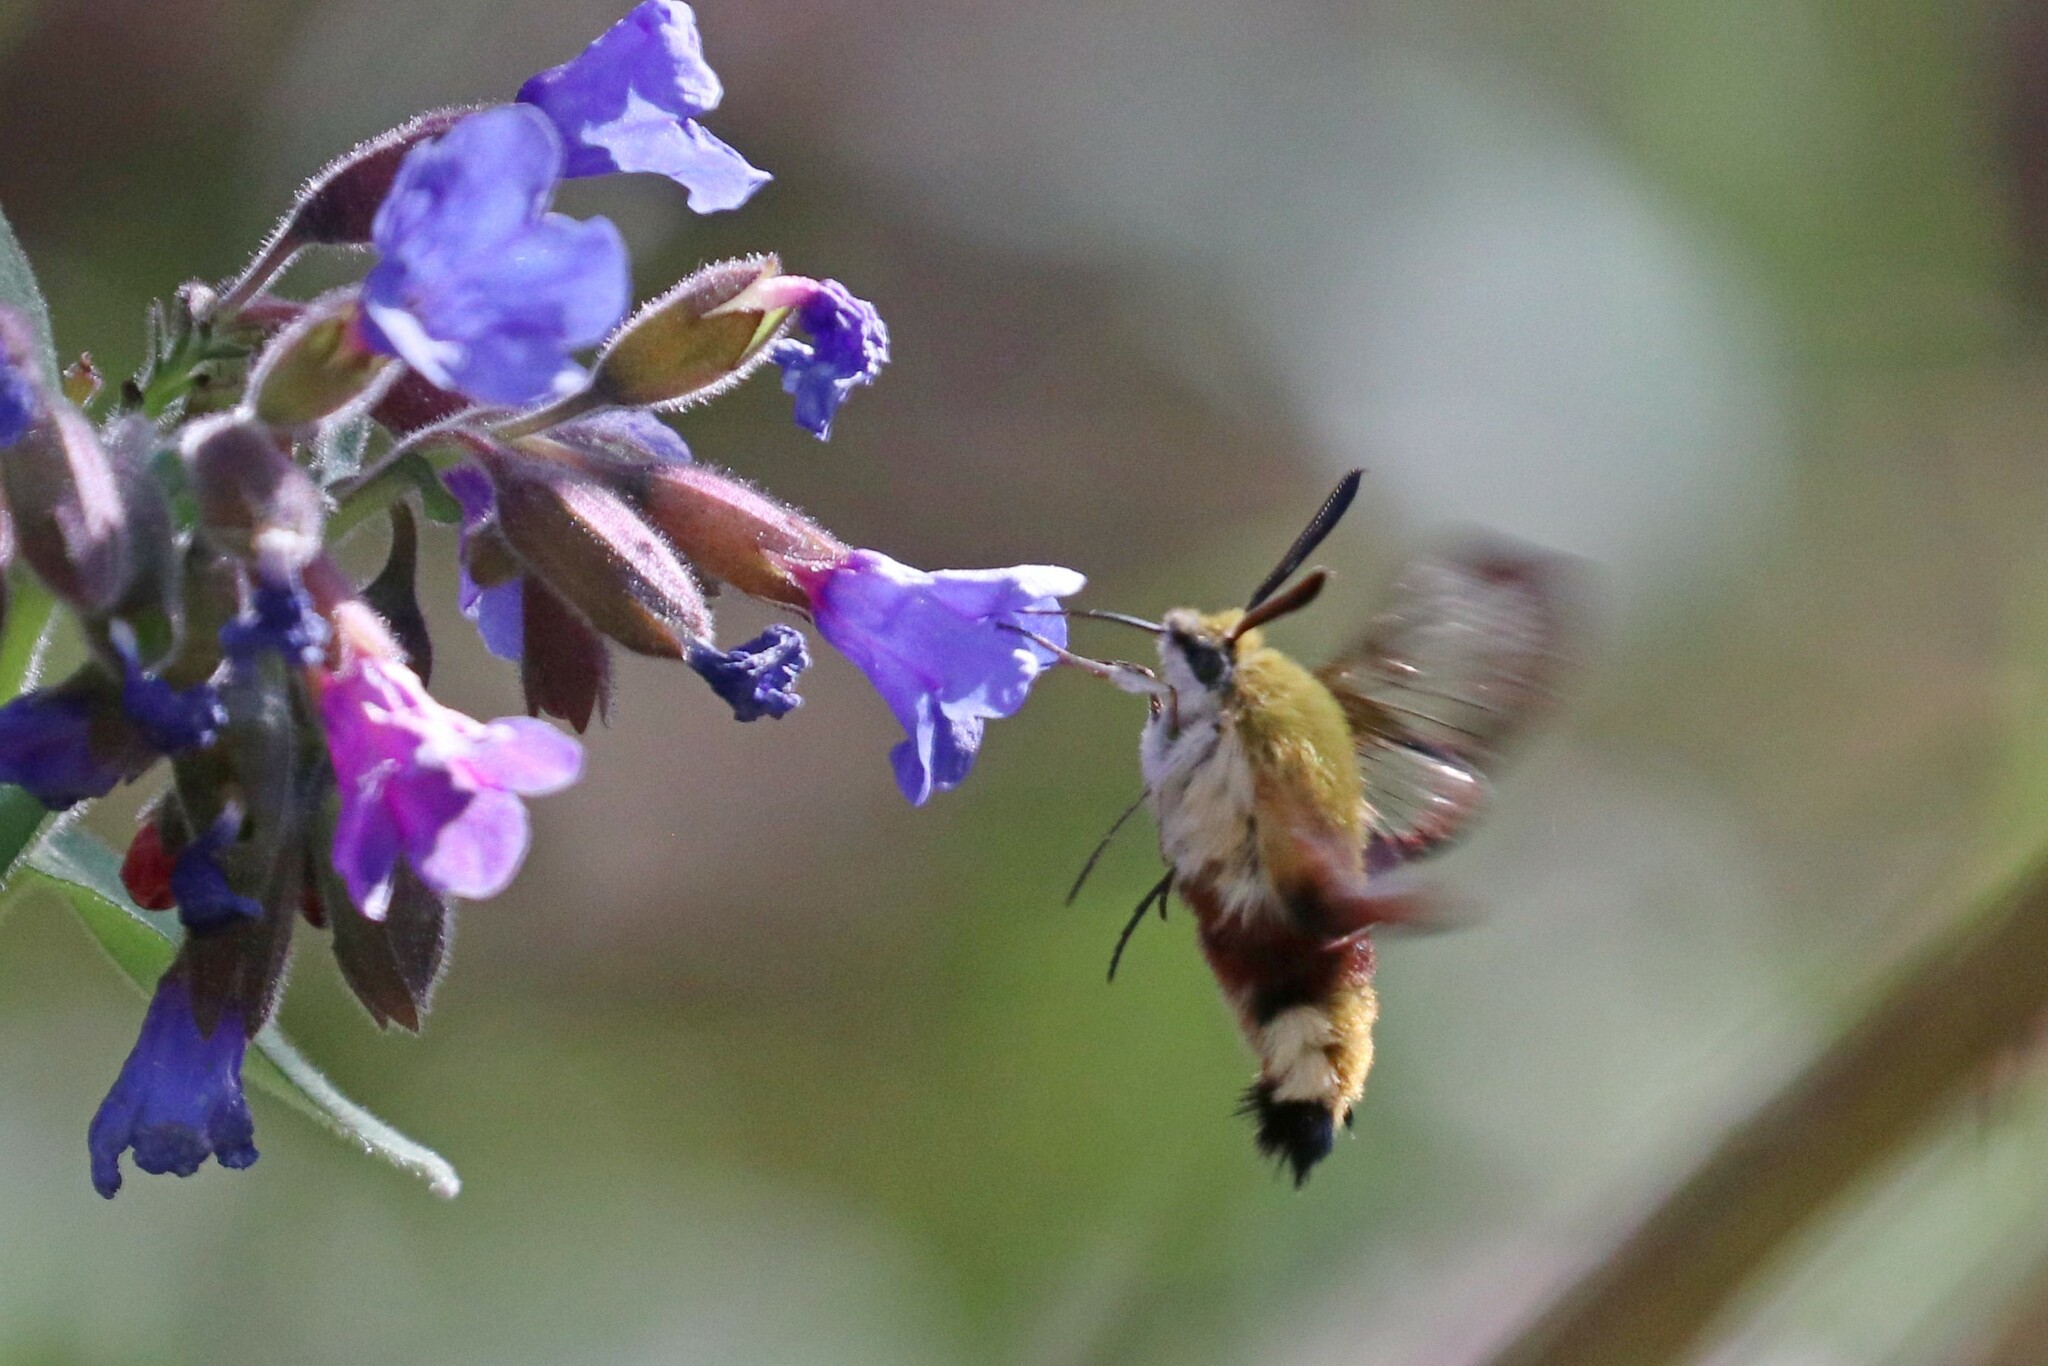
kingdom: Animalia
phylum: Arthropoda
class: Insecta
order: Lepidoptera
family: Sphingidae
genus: Hemaris
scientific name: Hemaris fuciformis
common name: Broad-bordered bee hawk-moth
